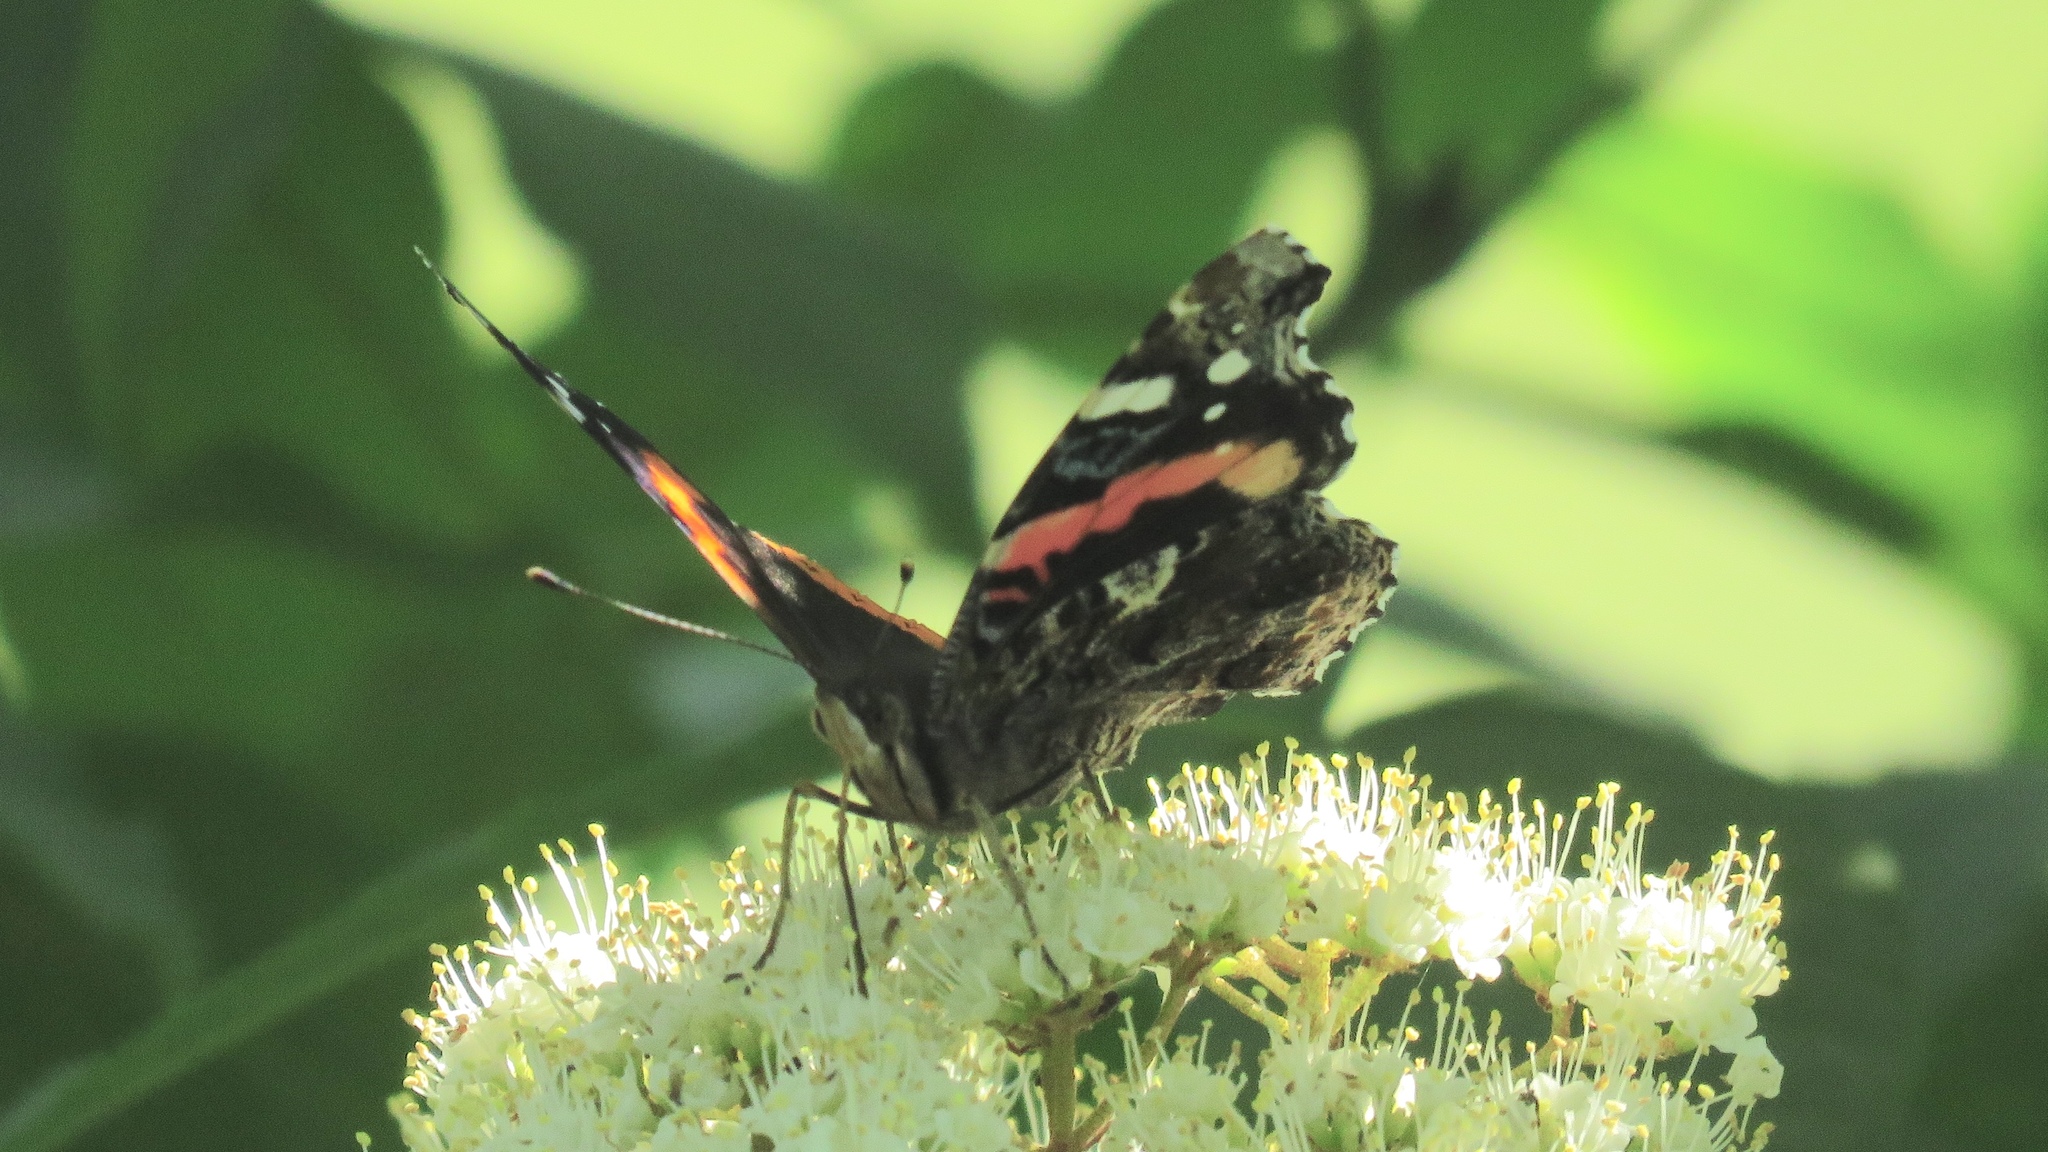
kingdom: Animalia
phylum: Arthropoda
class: Insecta
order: Lepidoptera
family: Nymphalidae
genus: Vanessa
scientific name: Vanessa atalanta
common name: Red admiral
